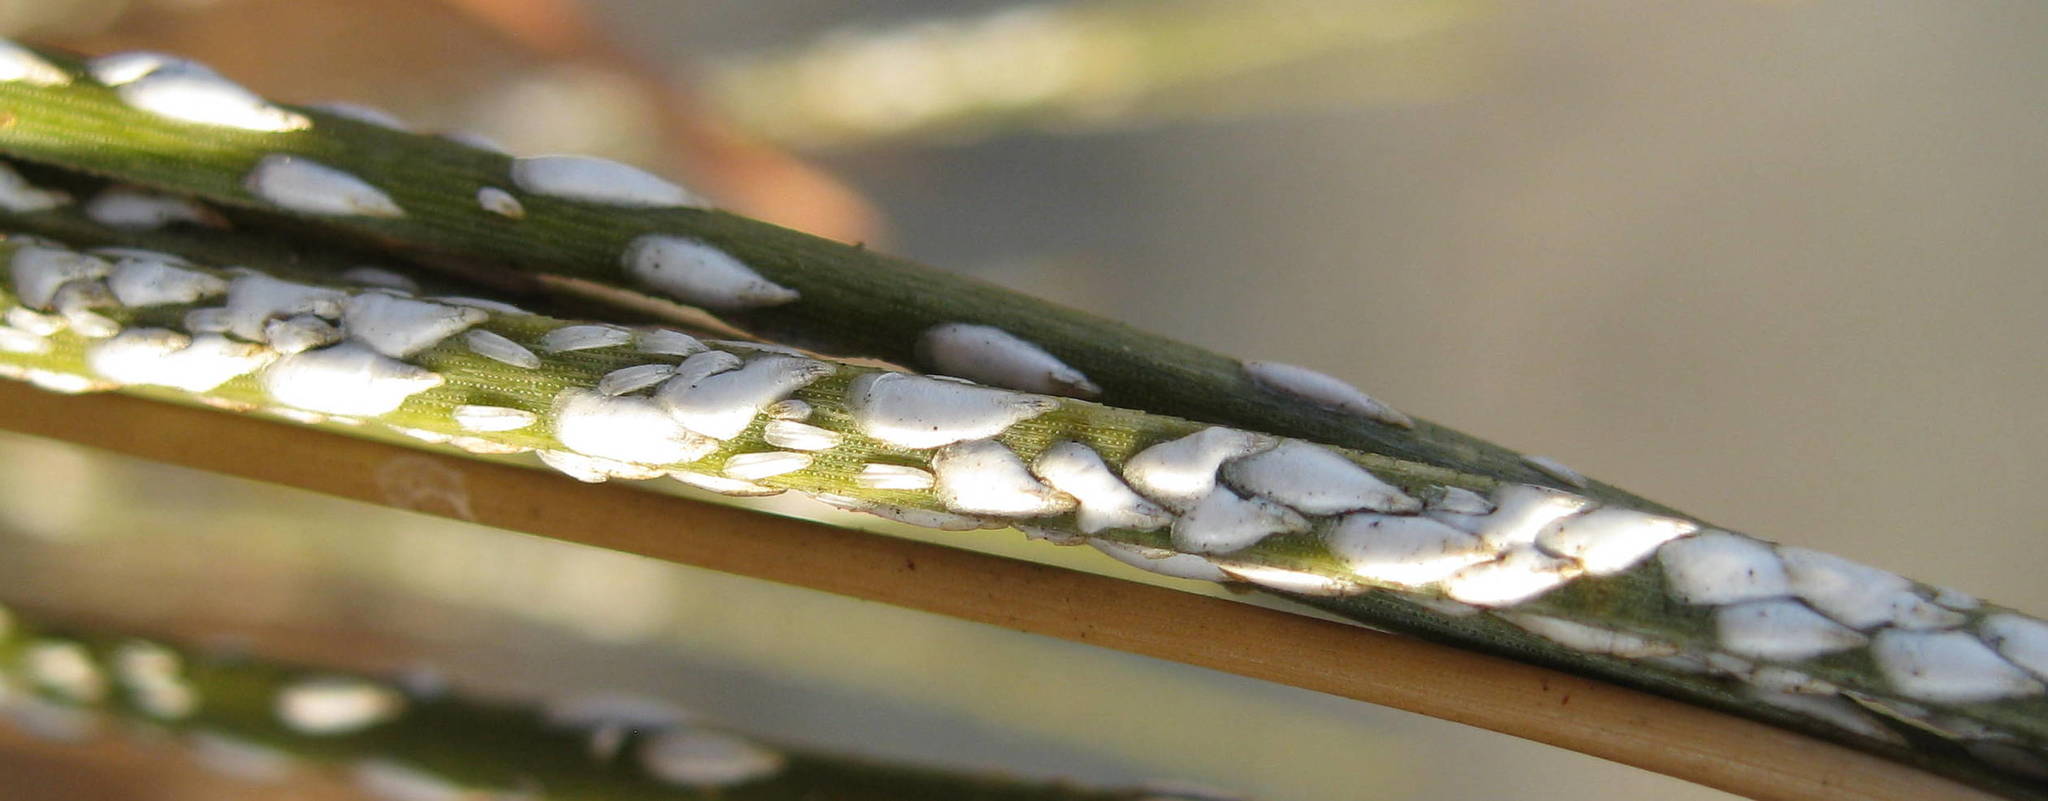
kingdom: Animalia
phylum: Arthropoda
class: Insecta
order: Hemiptera
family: Diaspididae
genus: Chionaspis
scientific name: Chionaspis pinifoliae
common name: Pine leaf scale
